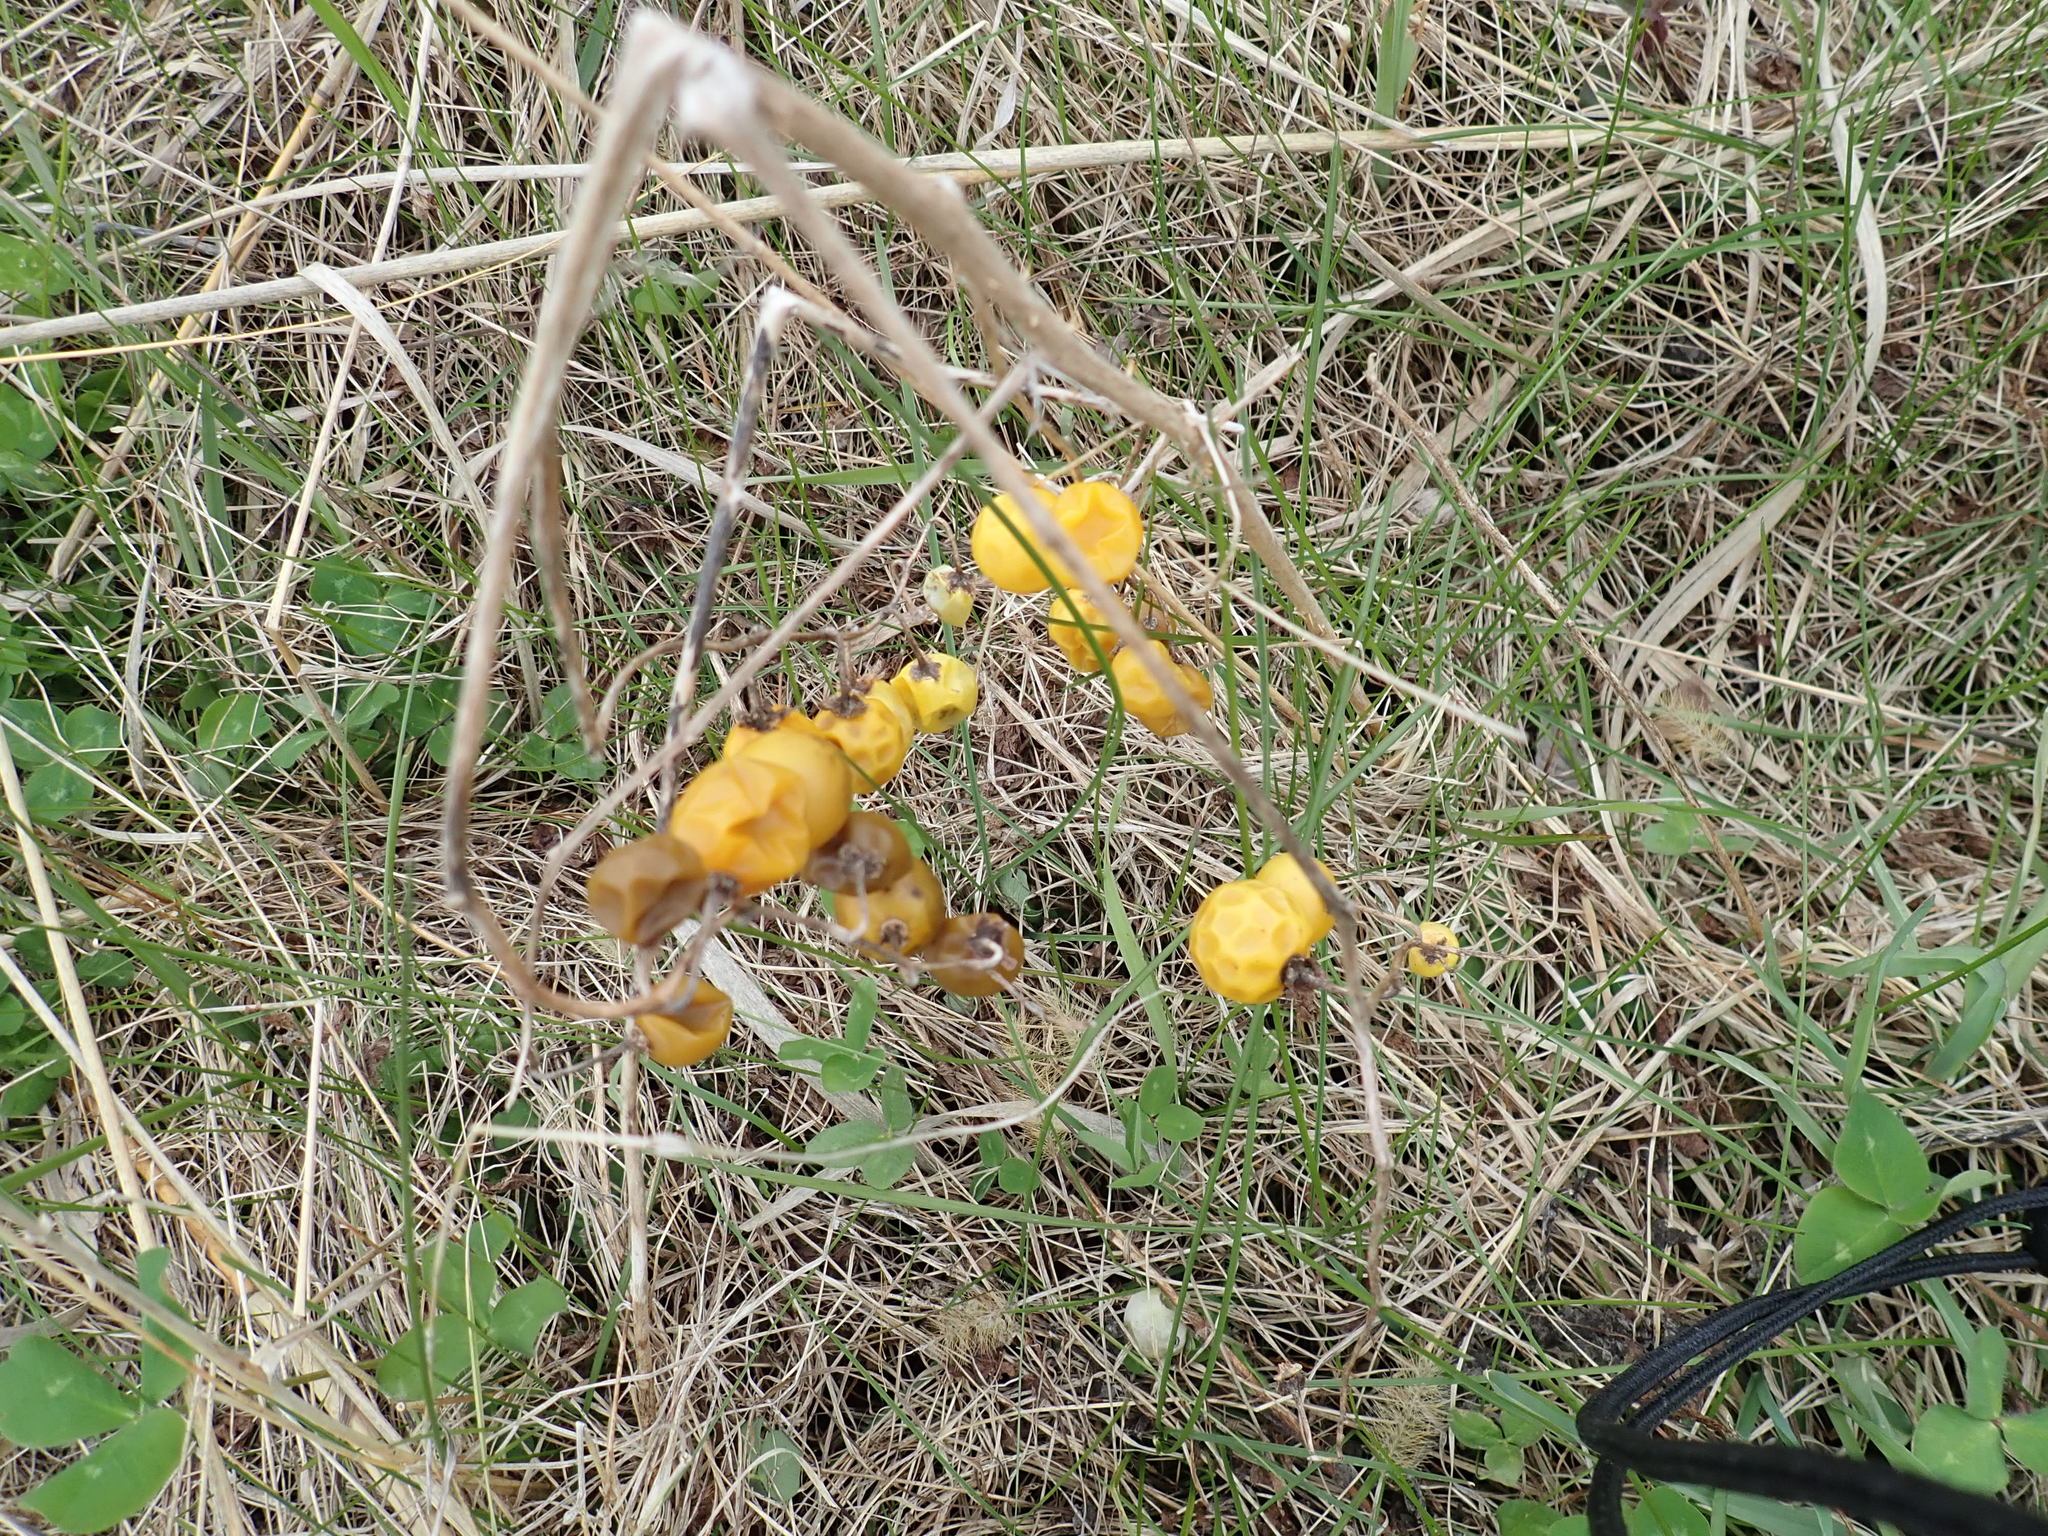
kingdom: Plantae
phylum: Tracheophyta
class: Magnoliopsida
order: Solanales
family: Solanaceae
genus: Solanum
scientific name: Solanum carolinense
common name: Horse-nettle
